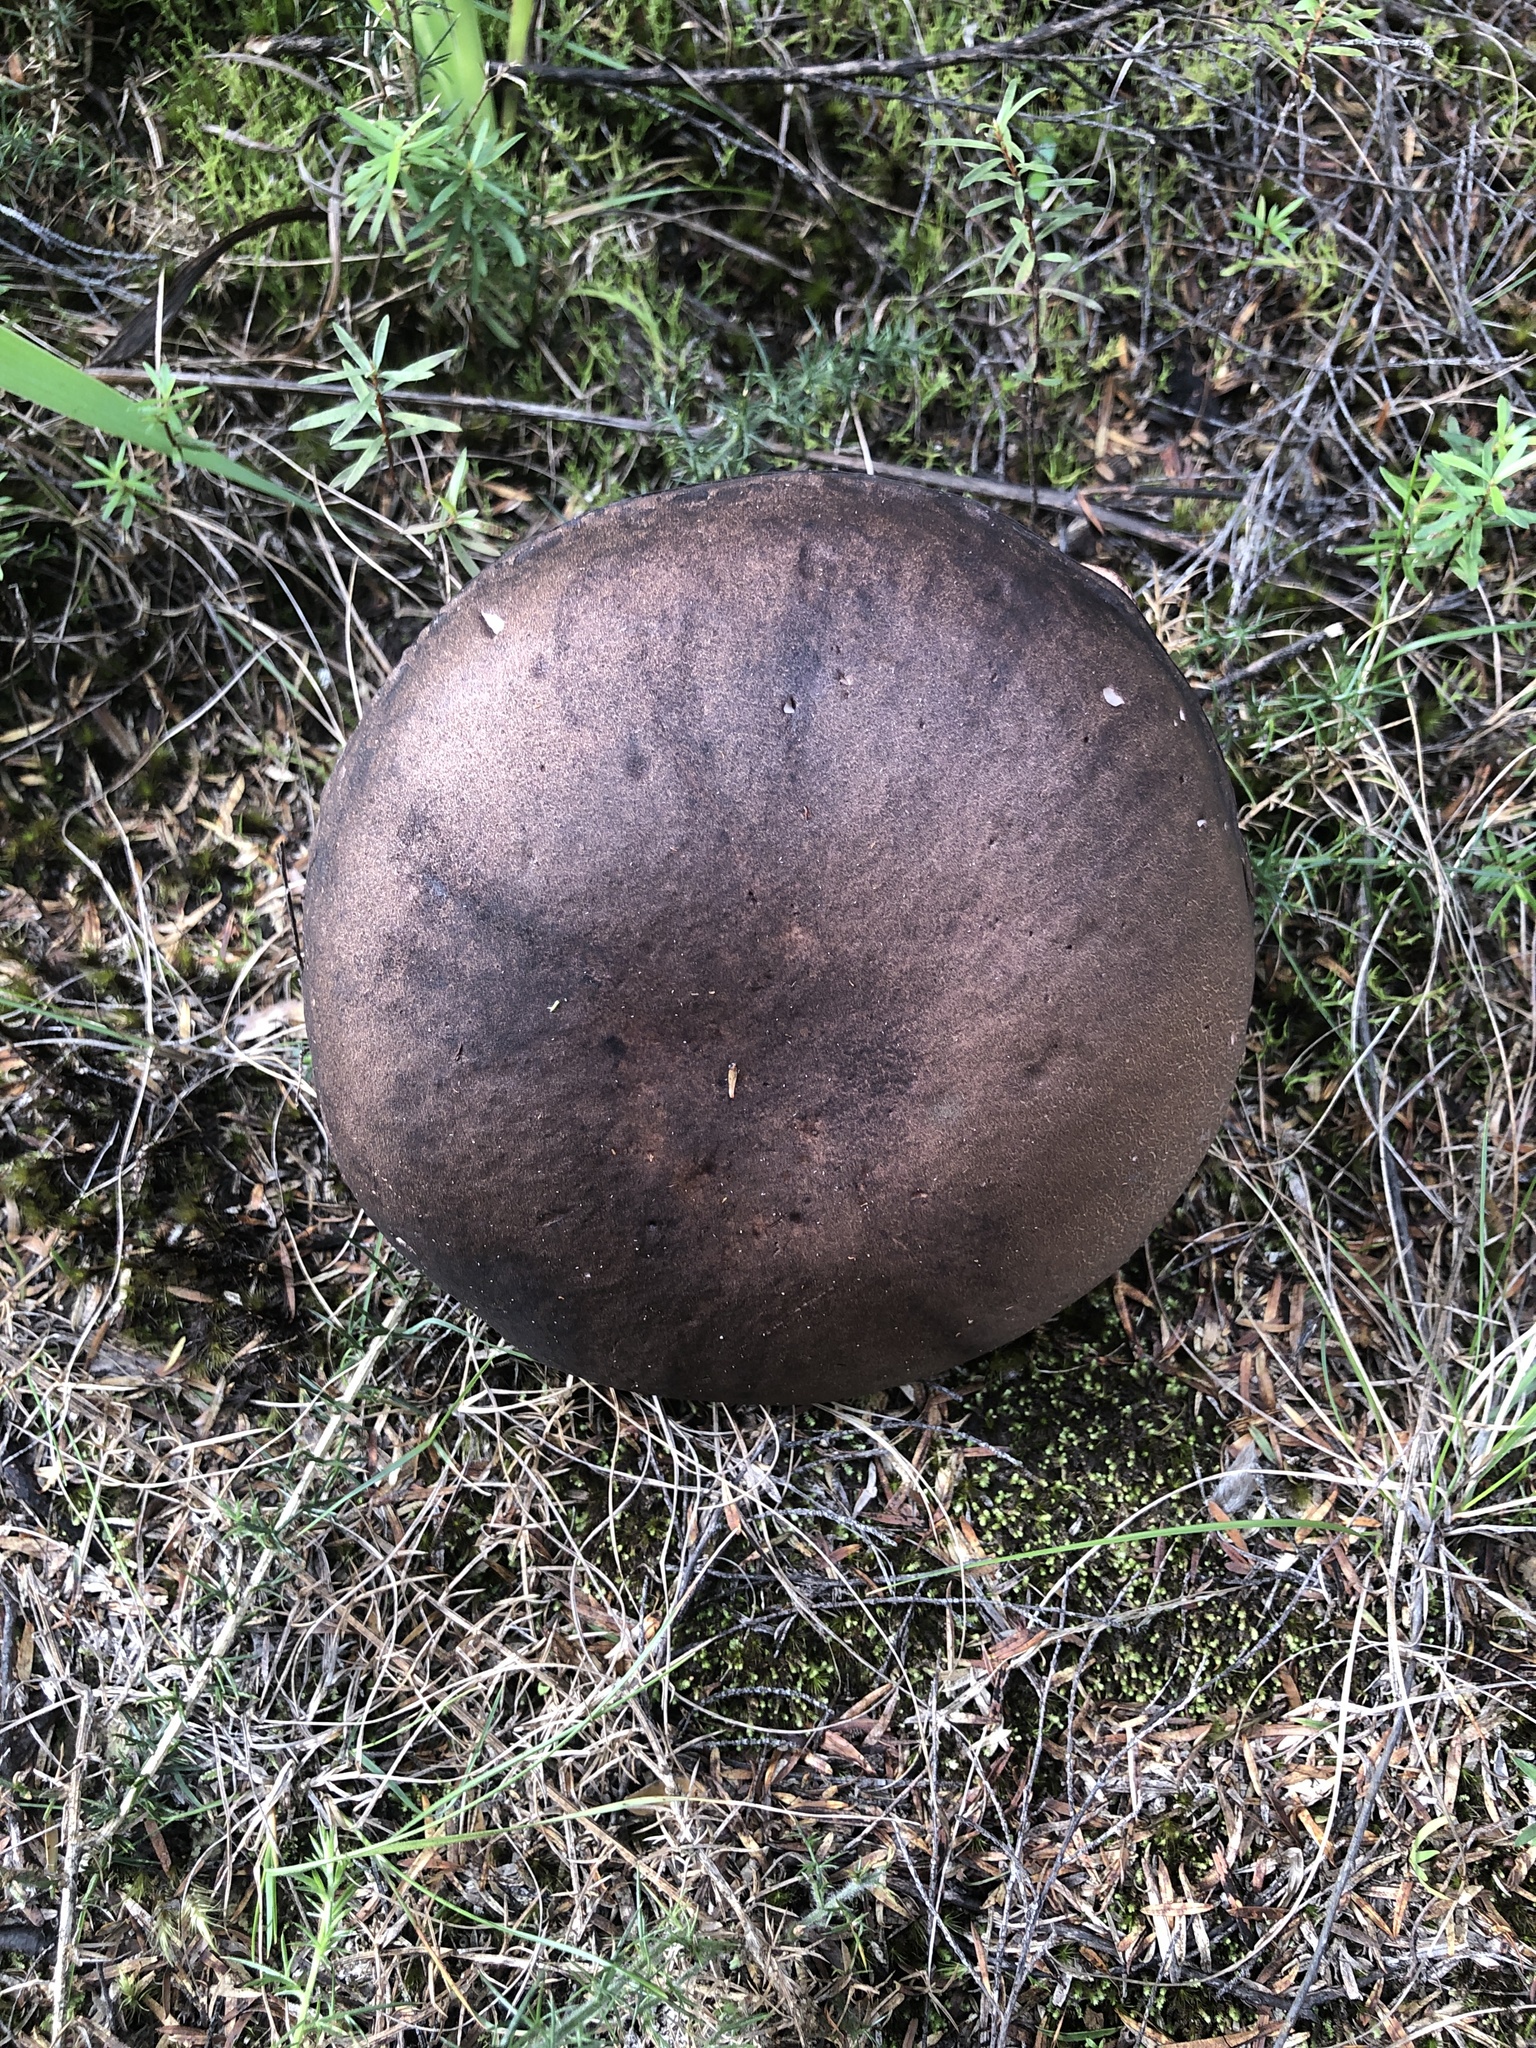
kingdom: Fungi
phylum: Basidiomycota
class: Agaricomycetes
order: Boletales
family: Boletaceae
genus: Porphyrellus
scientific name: Porphyrellus formosus
